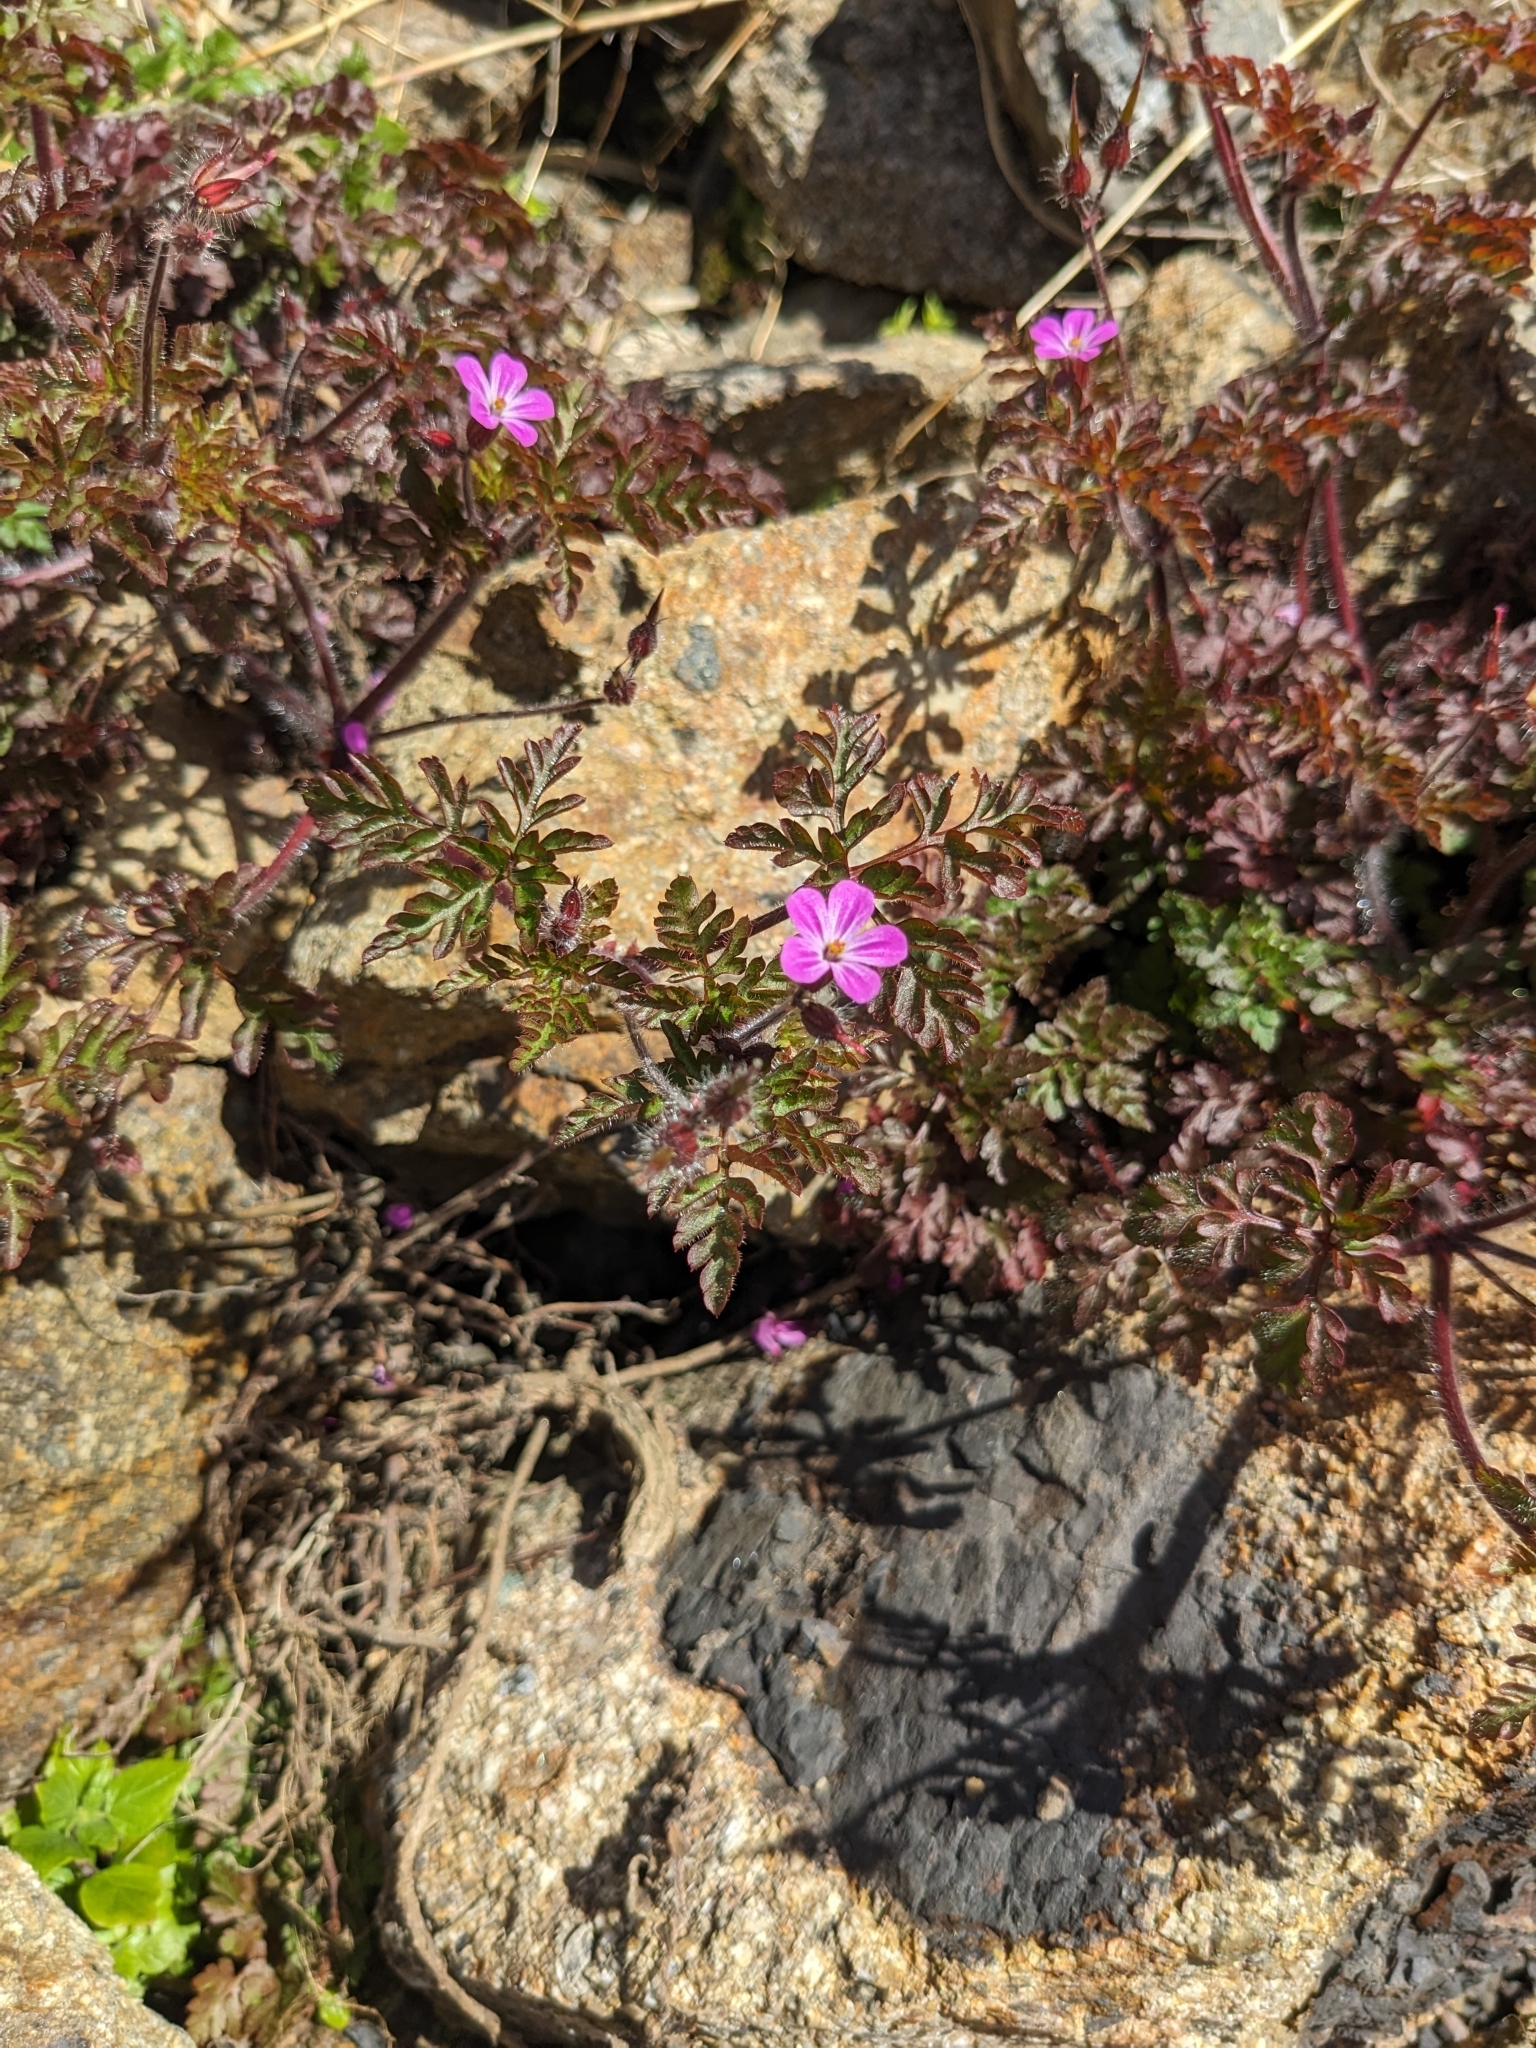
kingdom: Plantae
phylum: Tracheophyta
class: Magnoliopsida
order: Geraniales
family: Geraniaceae
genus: Geranium
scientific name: Geranium robertianum
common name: Herb-robert
